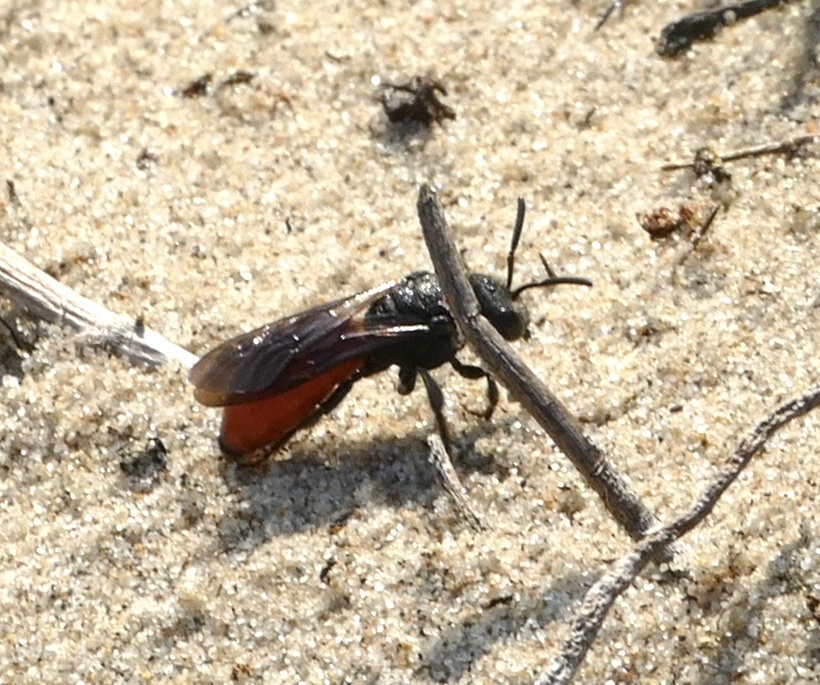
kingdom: Animalia
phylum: Arthropoda
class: Insecta
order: Hymenoptera
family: Halictidae
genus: Sphecodes
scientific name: Sphecodes albilabris
